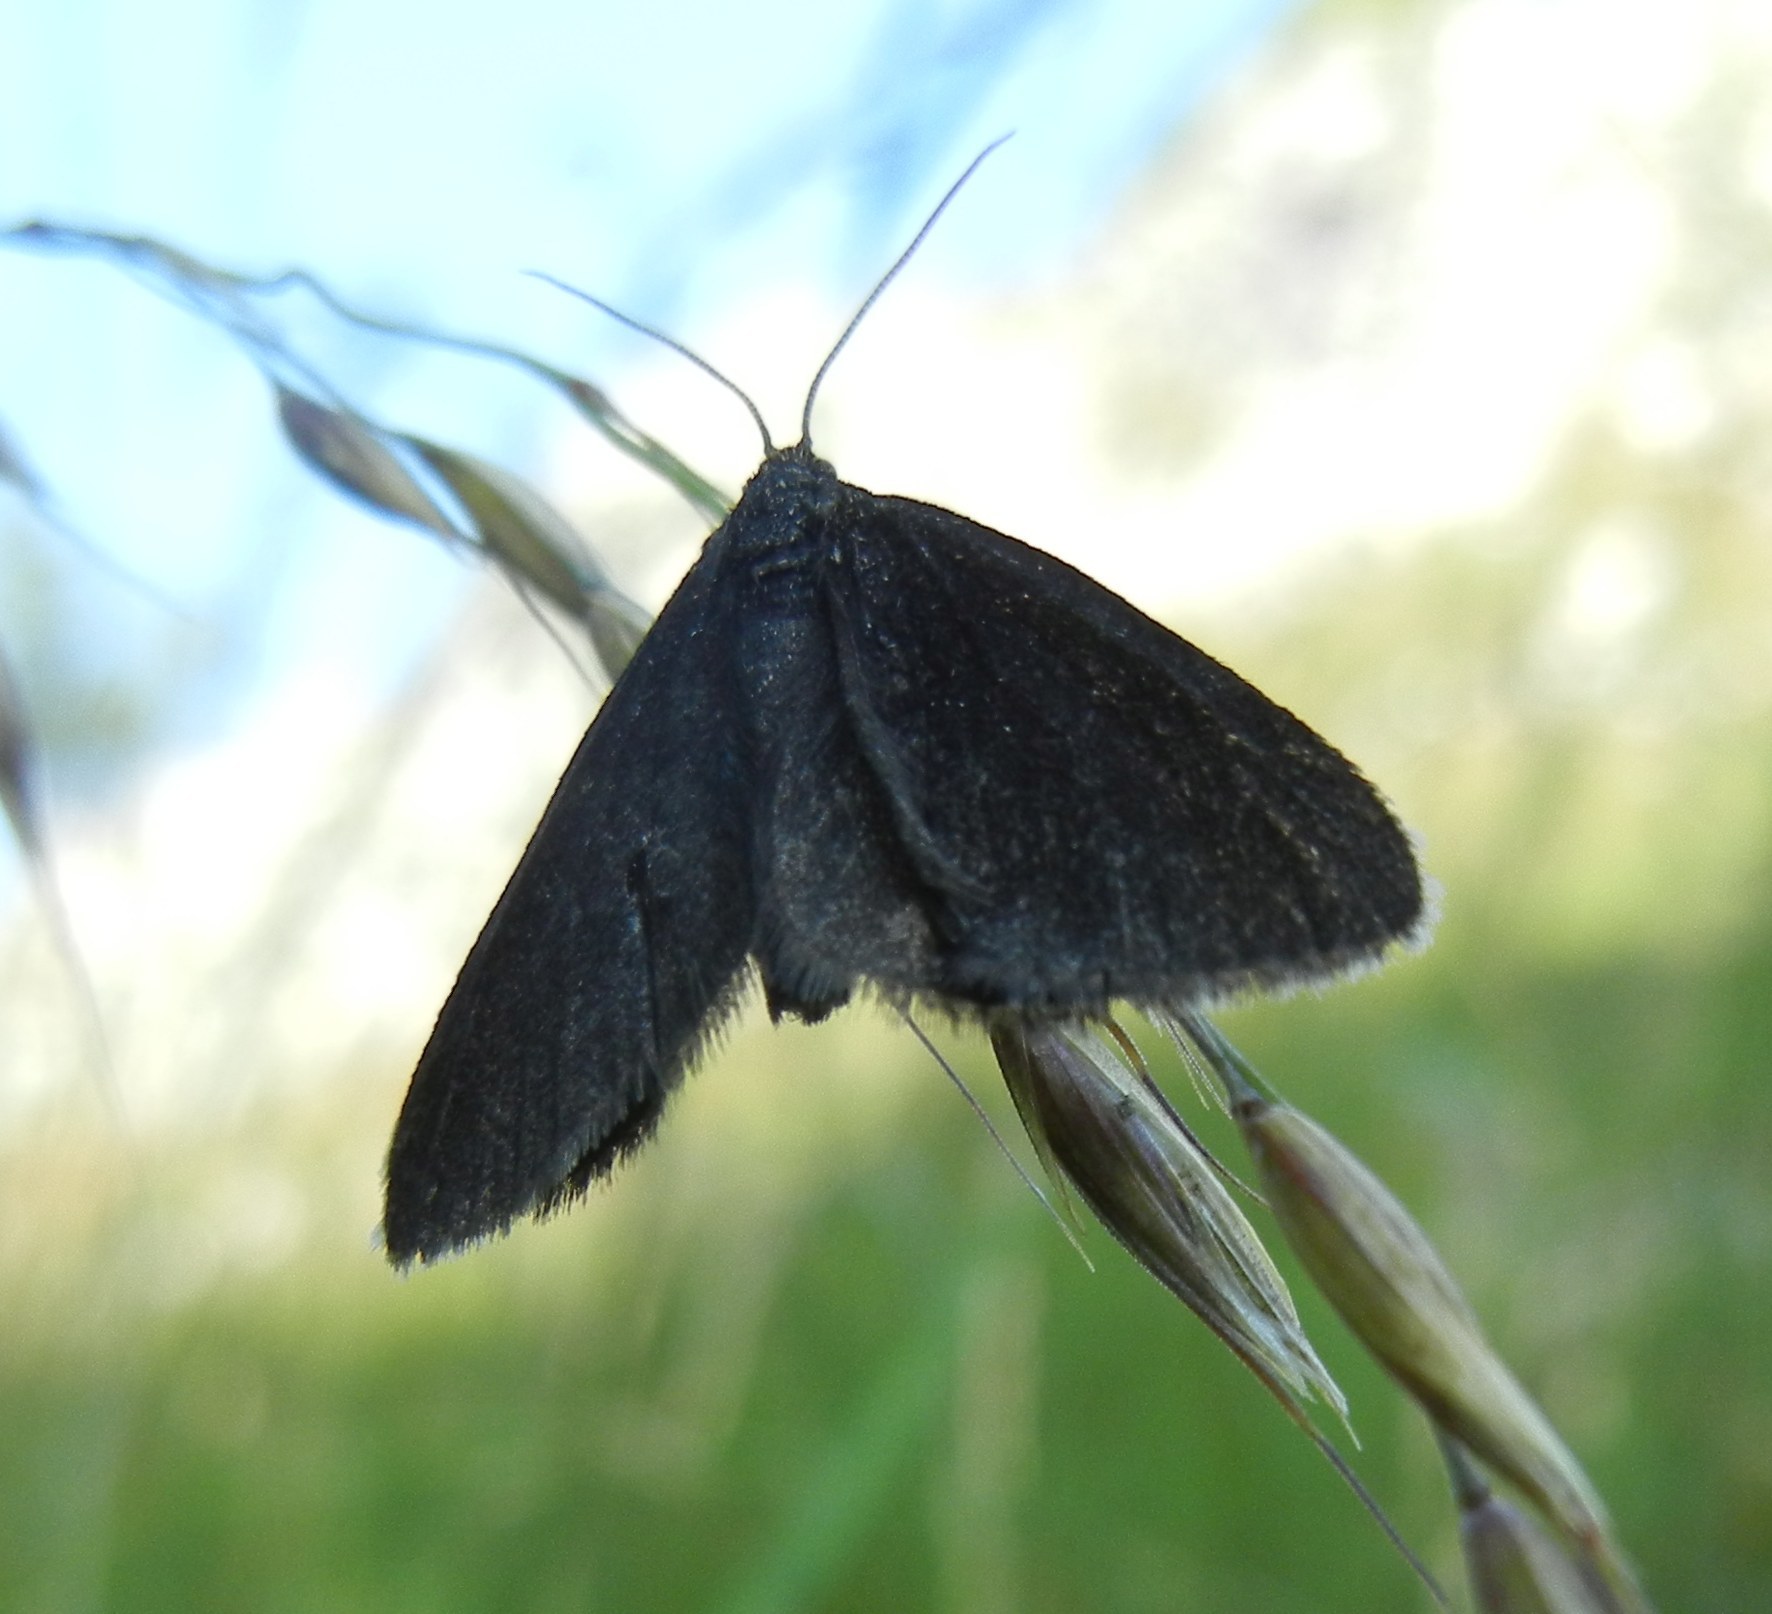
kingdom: Animalia
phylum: Arthropoda
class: Insecta
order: Lepidoptera
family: Geometridae
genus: Odezia
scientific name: Odezia atrata
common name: Chimney sweeper
